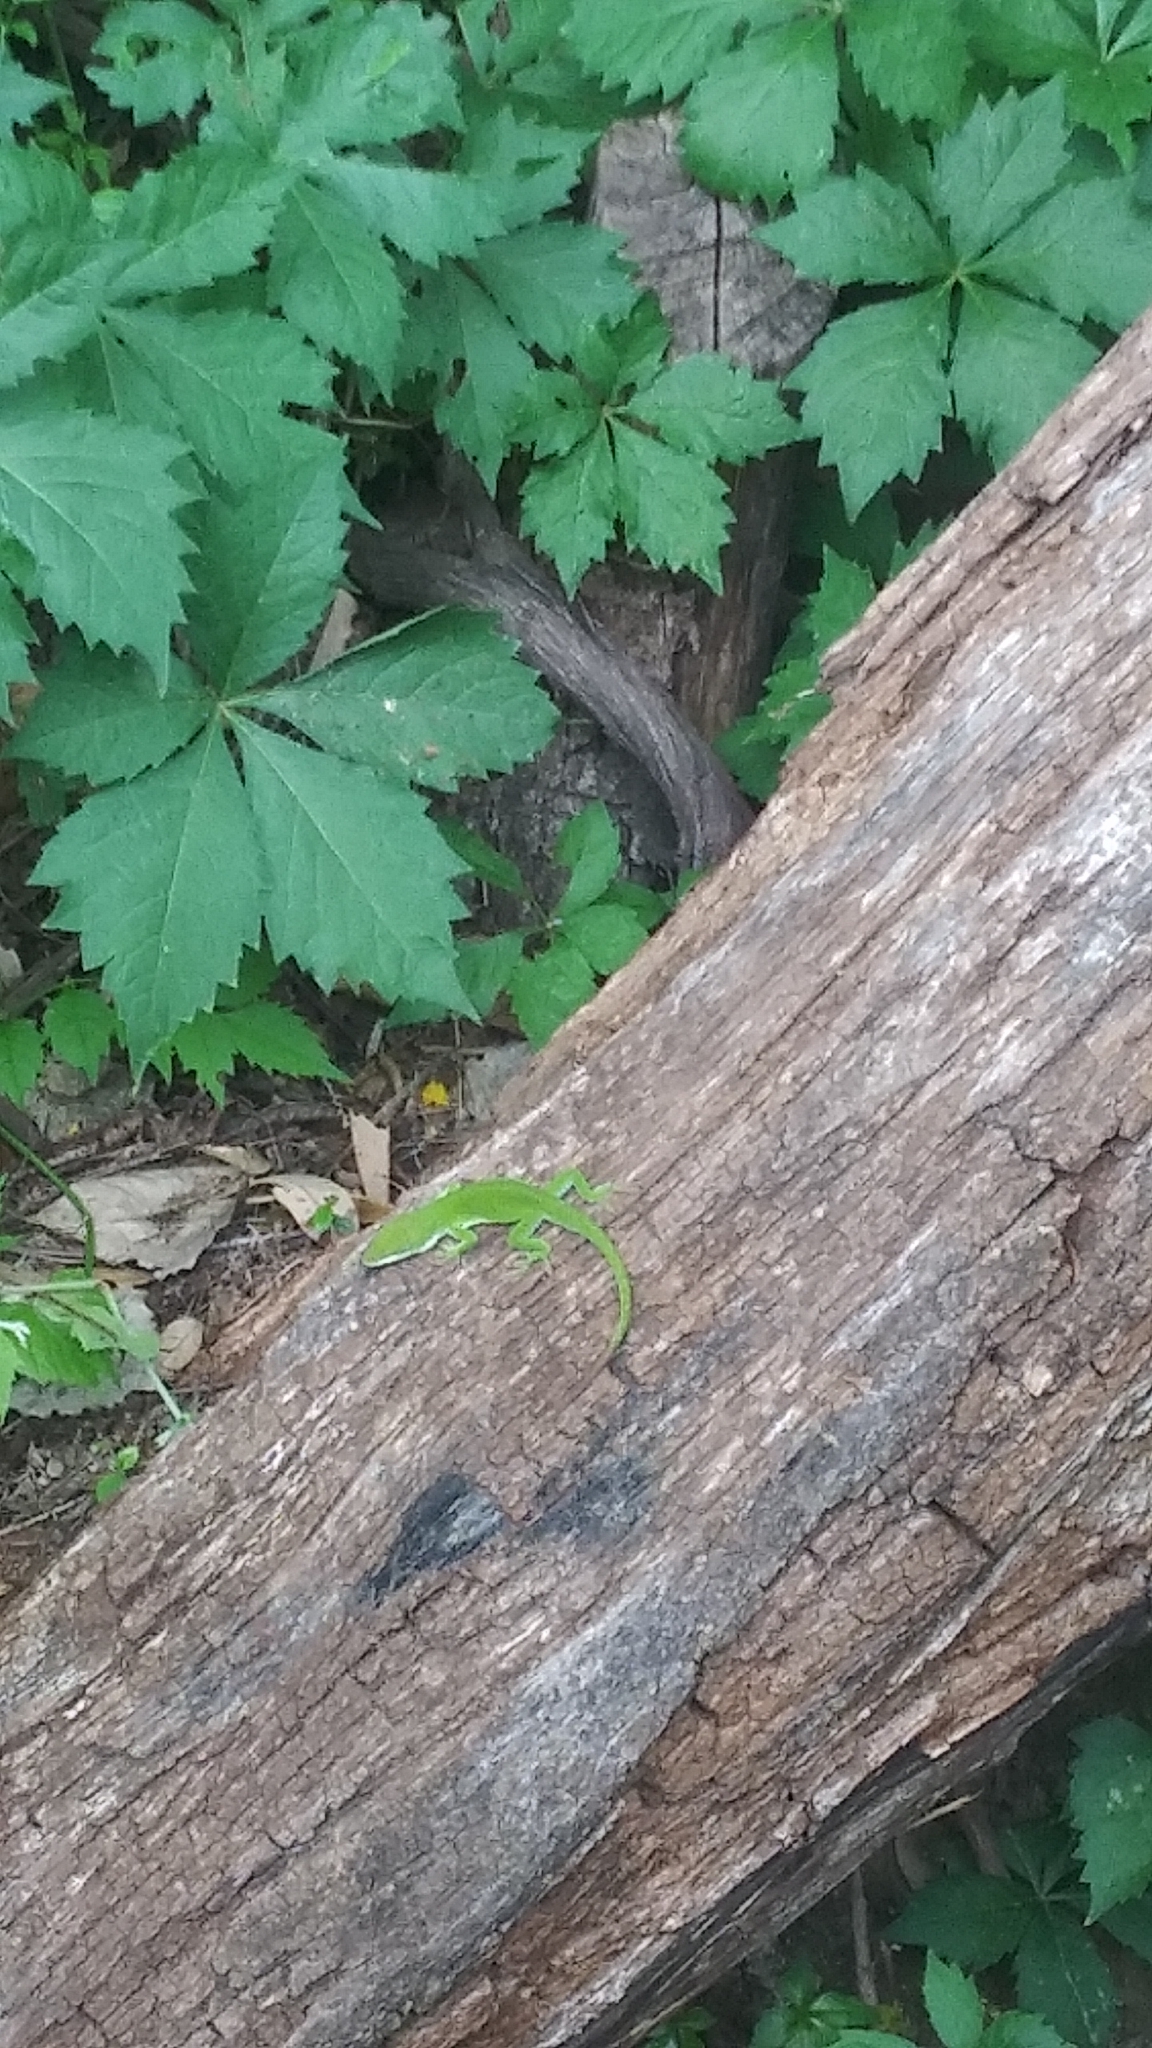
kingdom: Animalia
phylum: Chordata
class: Squamata
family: Dactyloidae
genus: Anolis
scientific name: Anolis carolinensis
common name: Green anole
